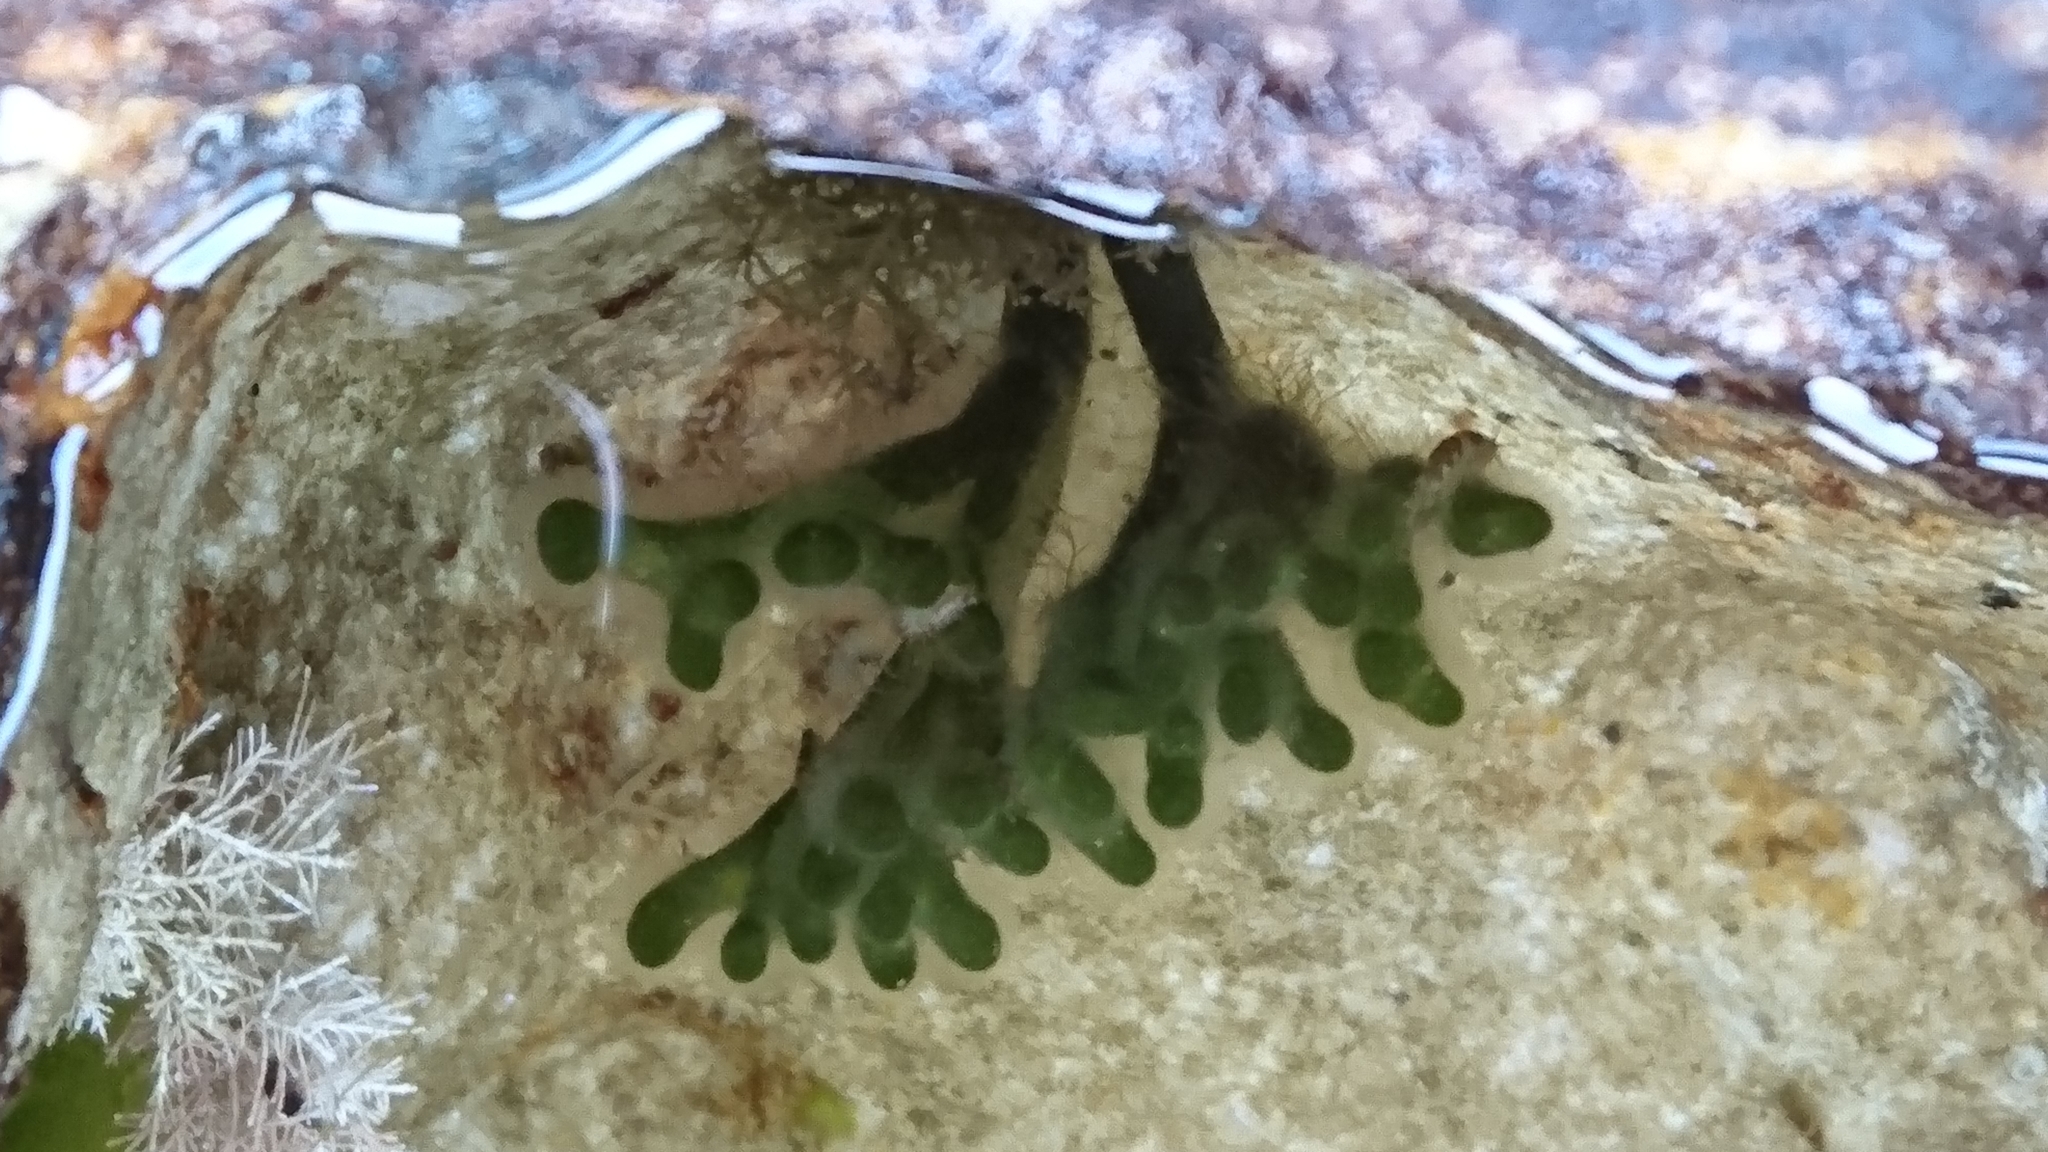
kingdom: Plantae
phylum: Chlorophyta
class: Ulvophyceae
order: Bryopsidales
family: Codiaceae
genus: Codium
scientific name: Codium fragile
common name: Dead man's fingers
